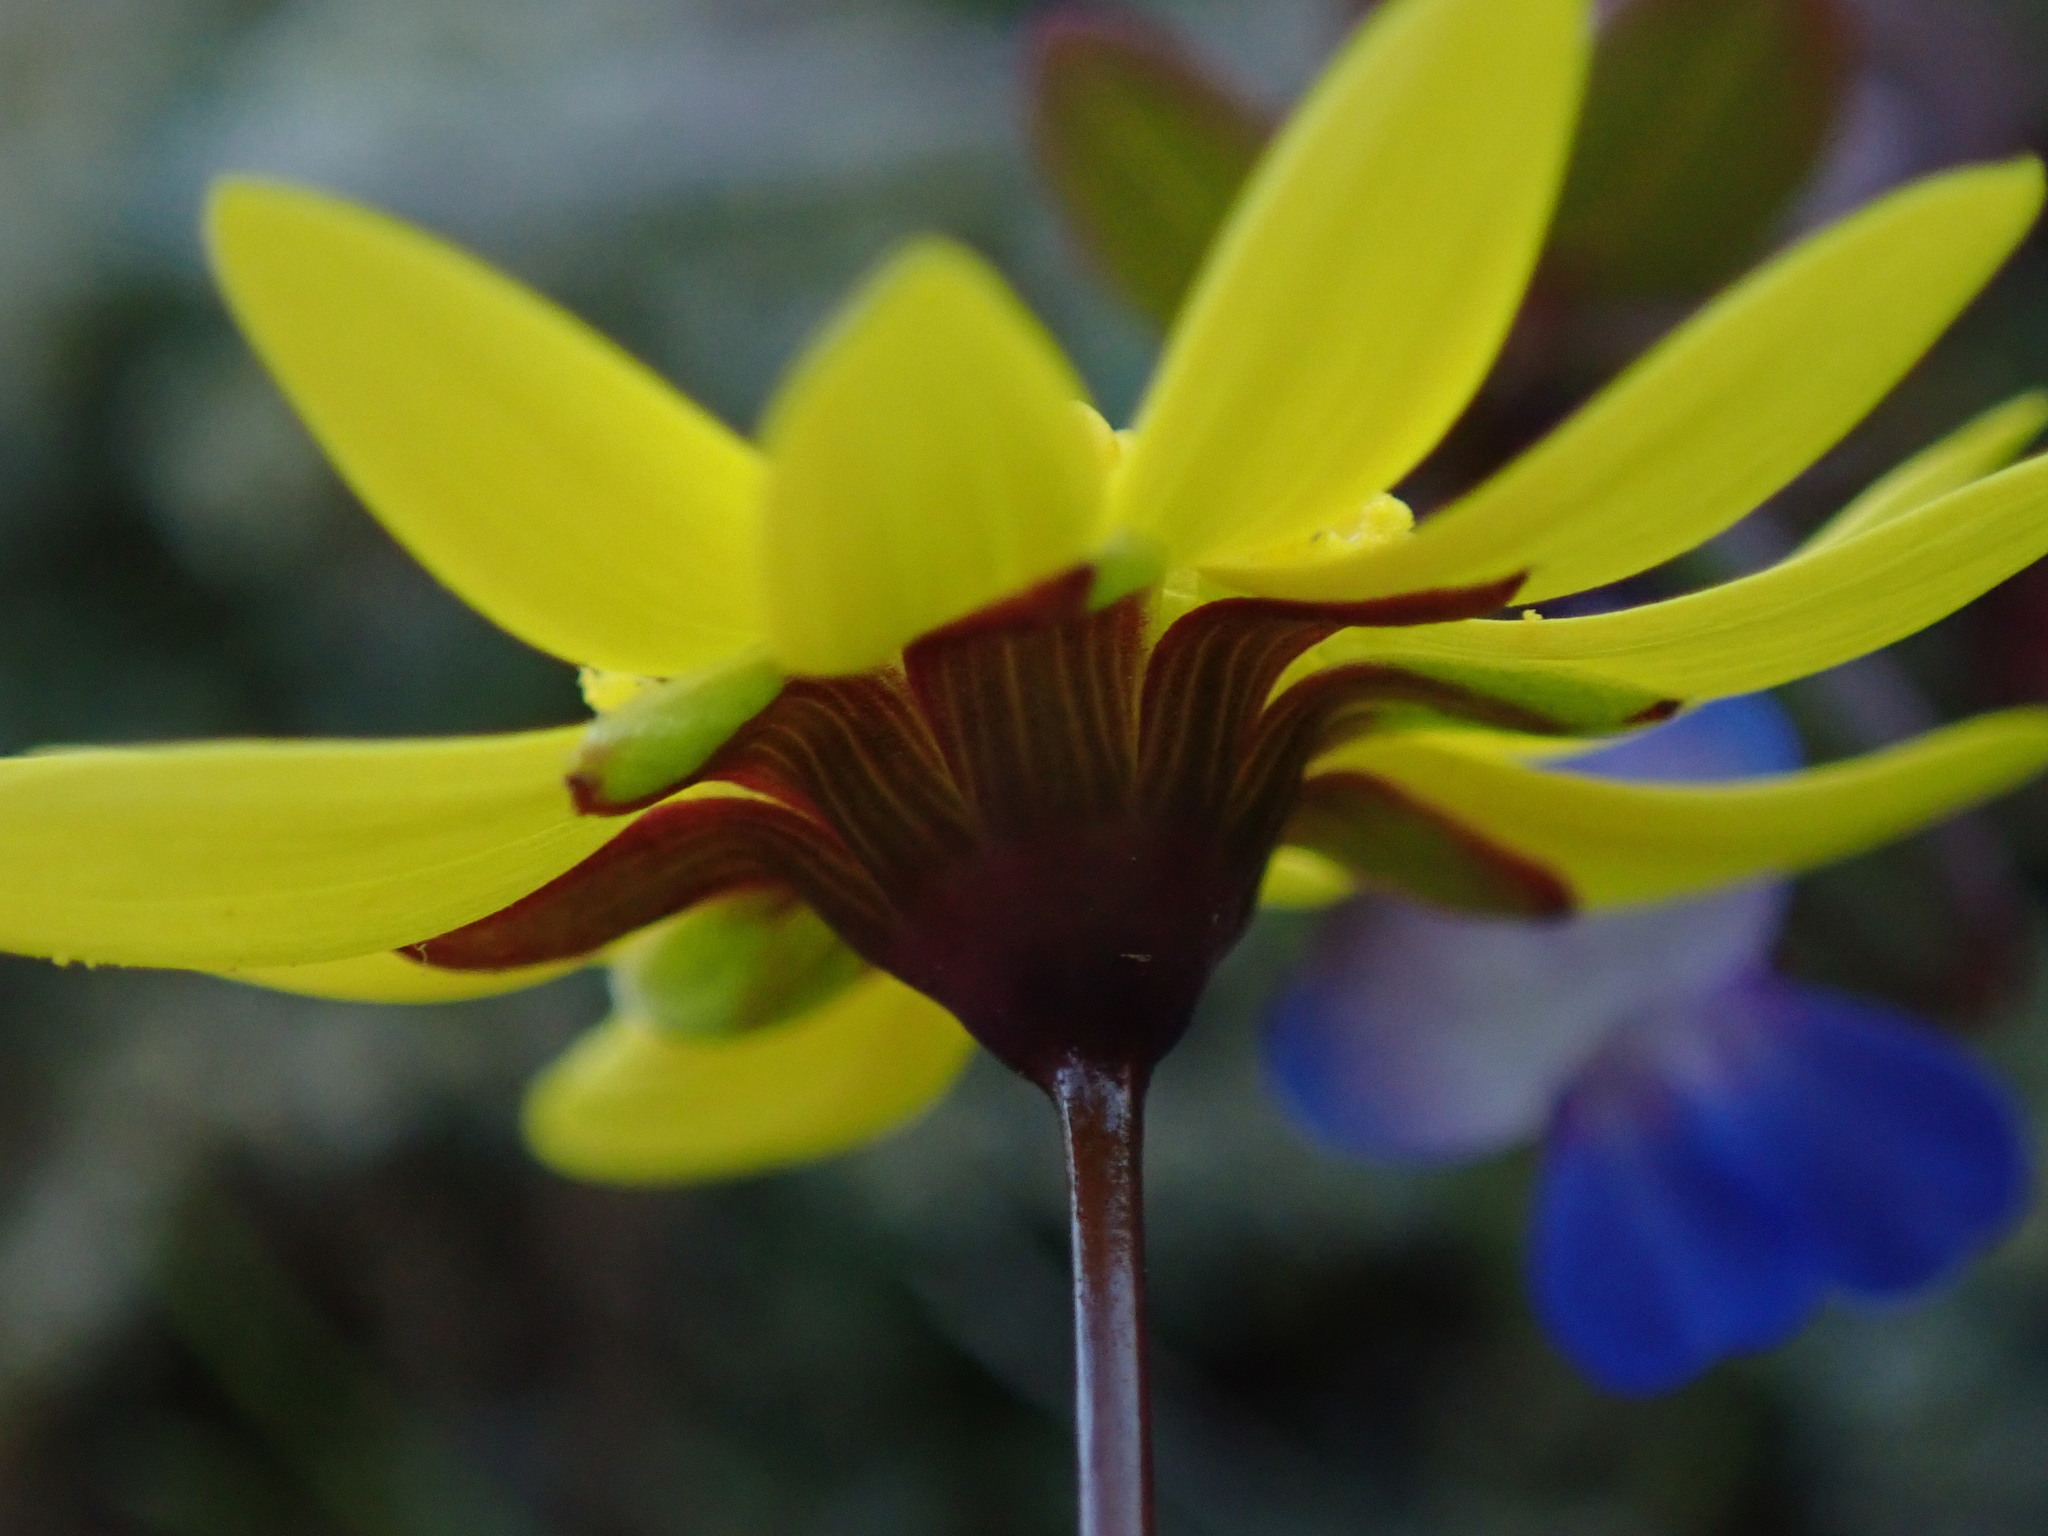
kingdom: Plantae
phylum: Tracheophyta
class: Magnoliopsida
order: Asterales
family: Asteraceae
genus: Crocidium
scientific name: Crocidium multicaule
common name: Common spring gold
